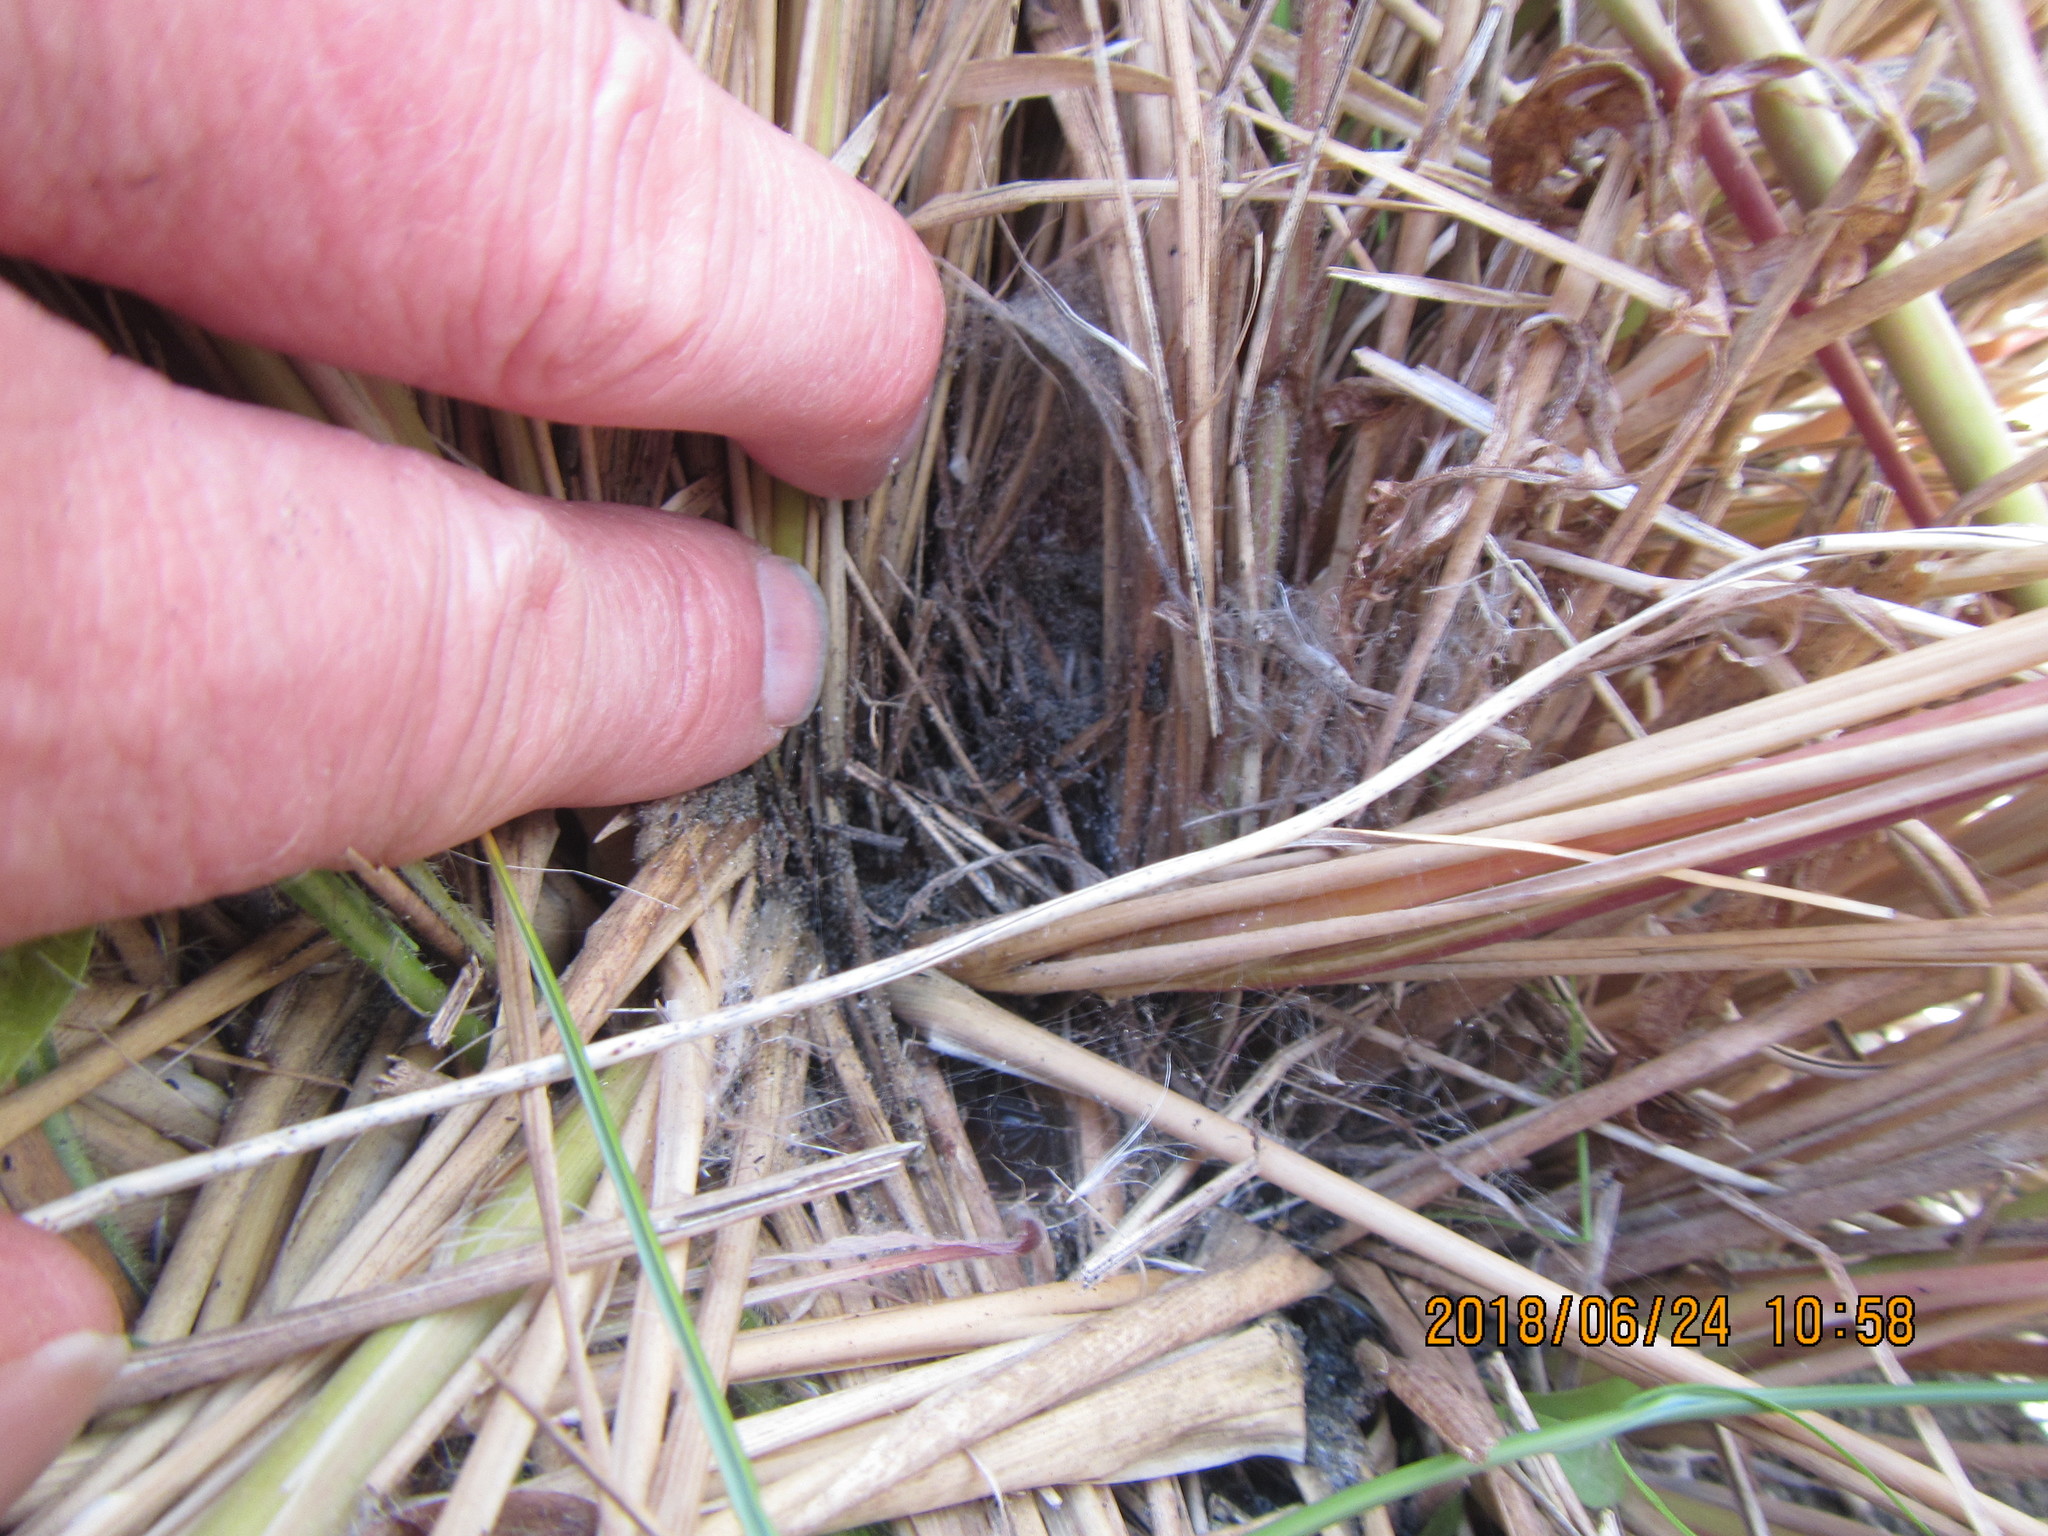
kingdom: Animalia
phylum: Arthropoda
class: Arachnida
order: Araneae
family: Theridiidae
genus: Latrodectus
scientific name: Latrodectus katipo
